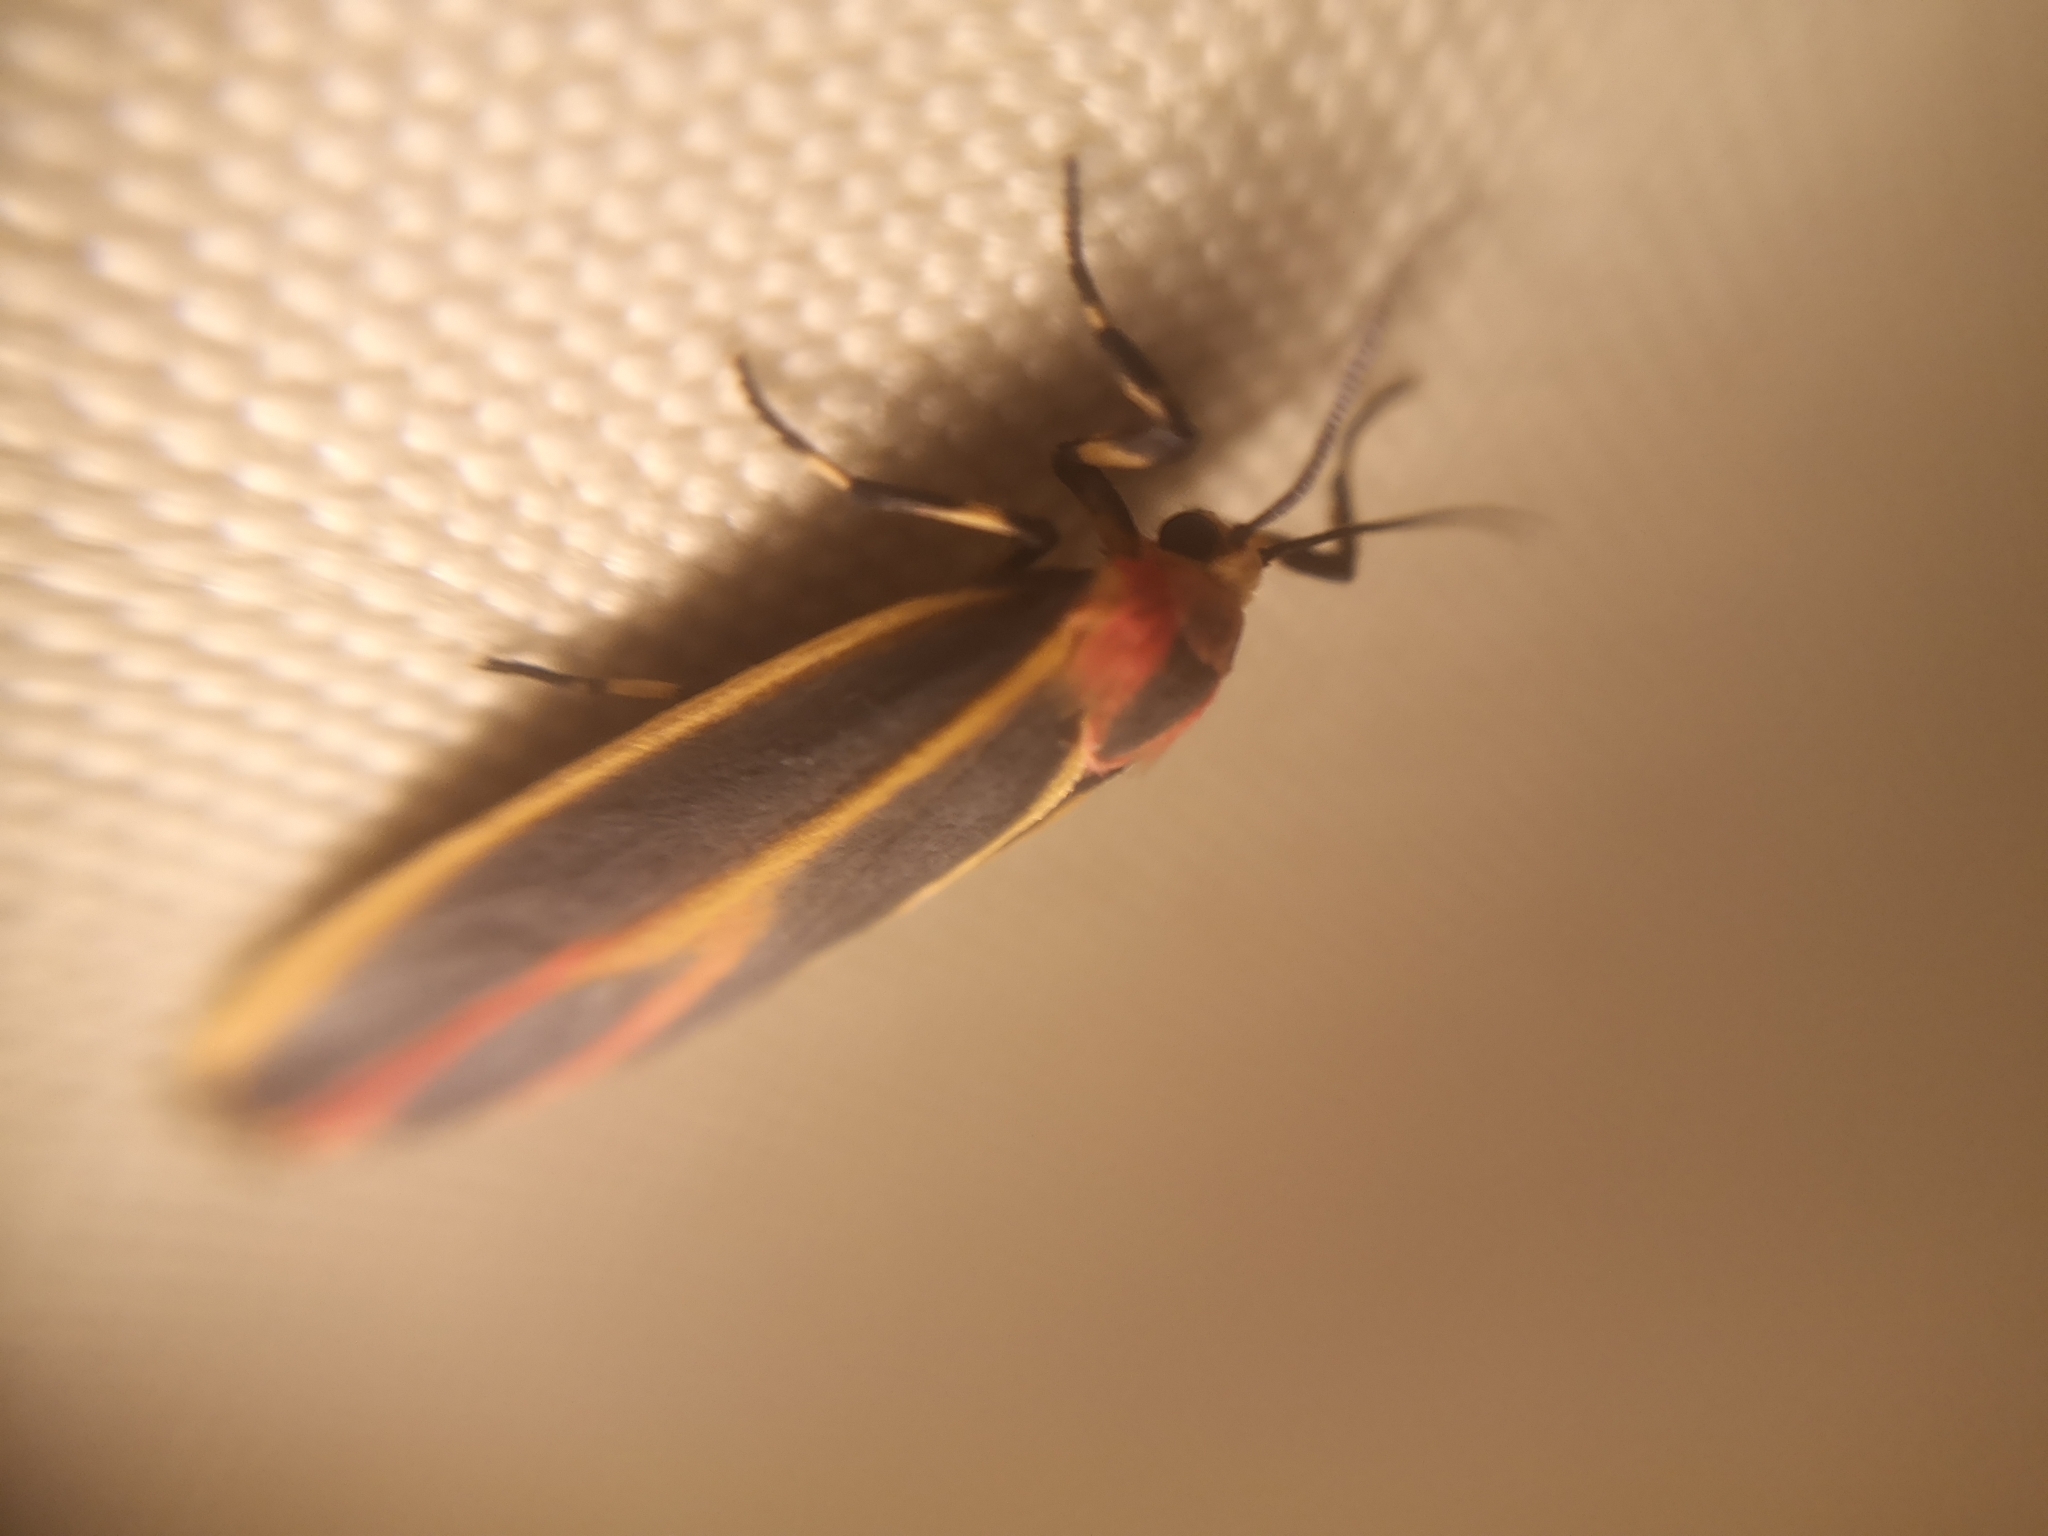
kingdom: Animalia
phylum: Arthropoda
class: Insecta
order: Lepidoptera
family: Erebidae
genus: Hypoprepia
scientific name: Hypoprepia fucosa
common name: Painted lichen moth
